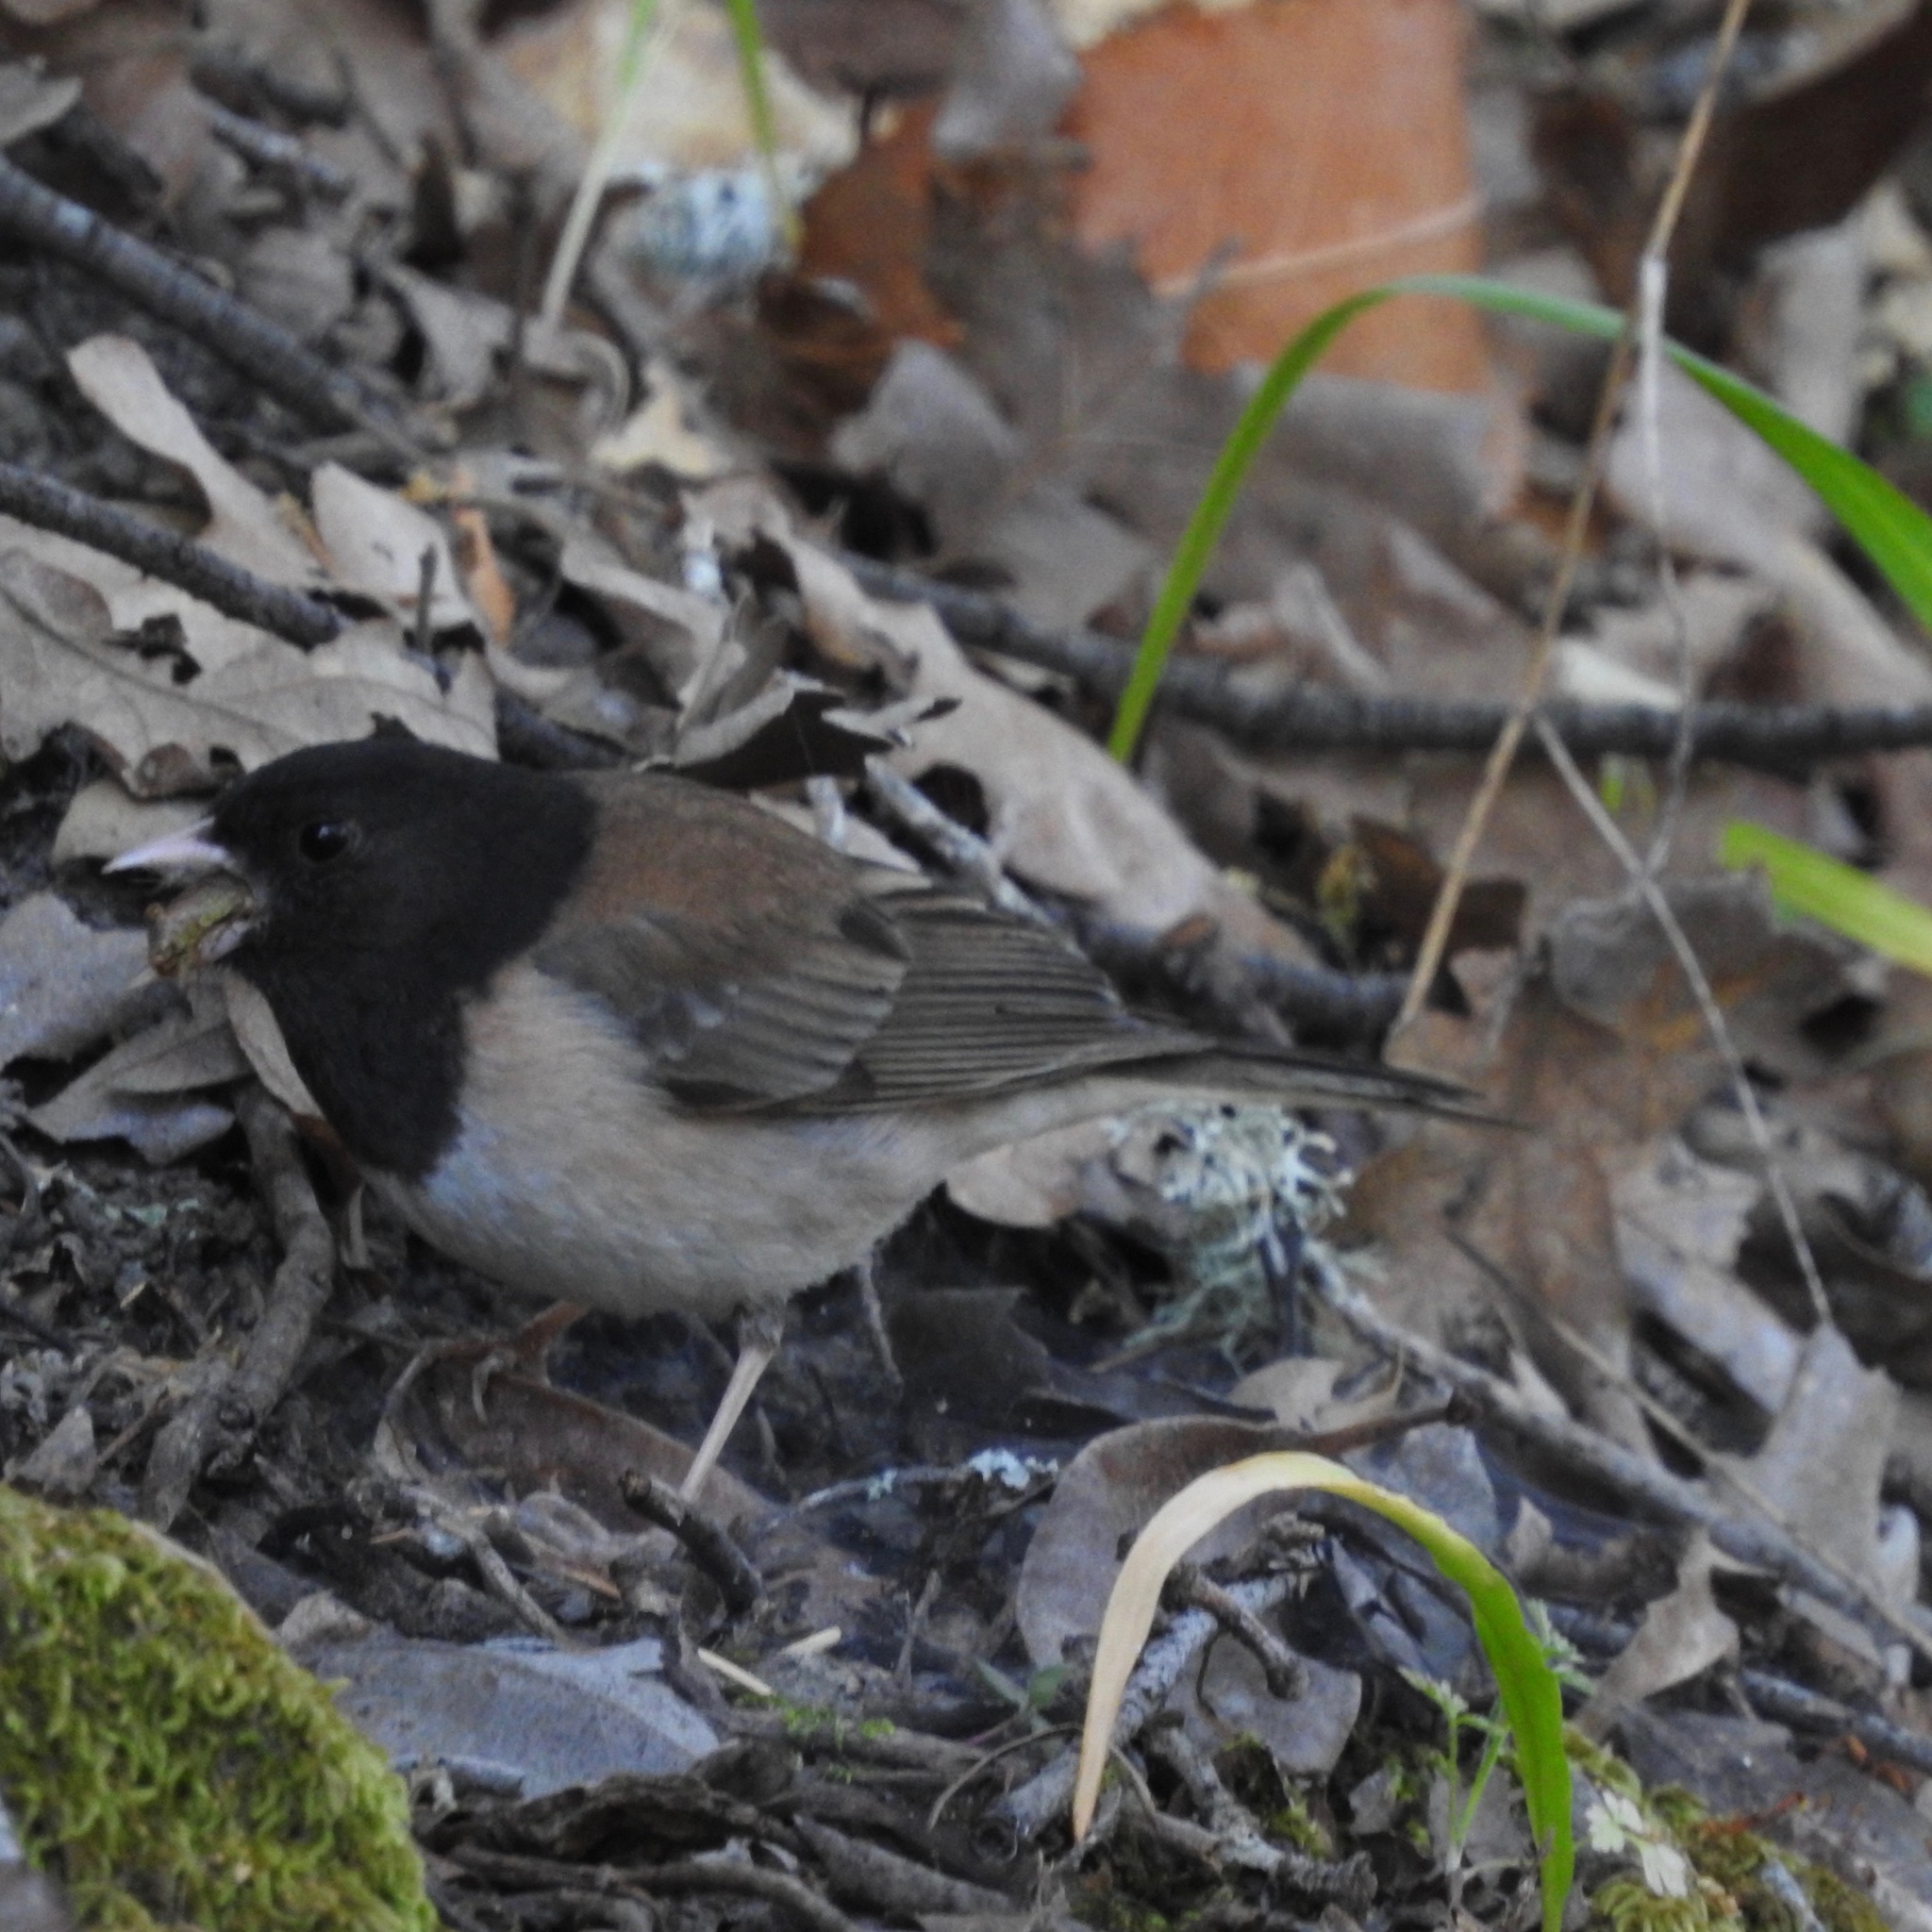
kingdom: Animalia
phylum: Chordata
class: Aves
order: Passeriformes
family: Passerellidae
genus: Junco
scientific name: Junco hyemalis
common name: Dark-eyed junco
